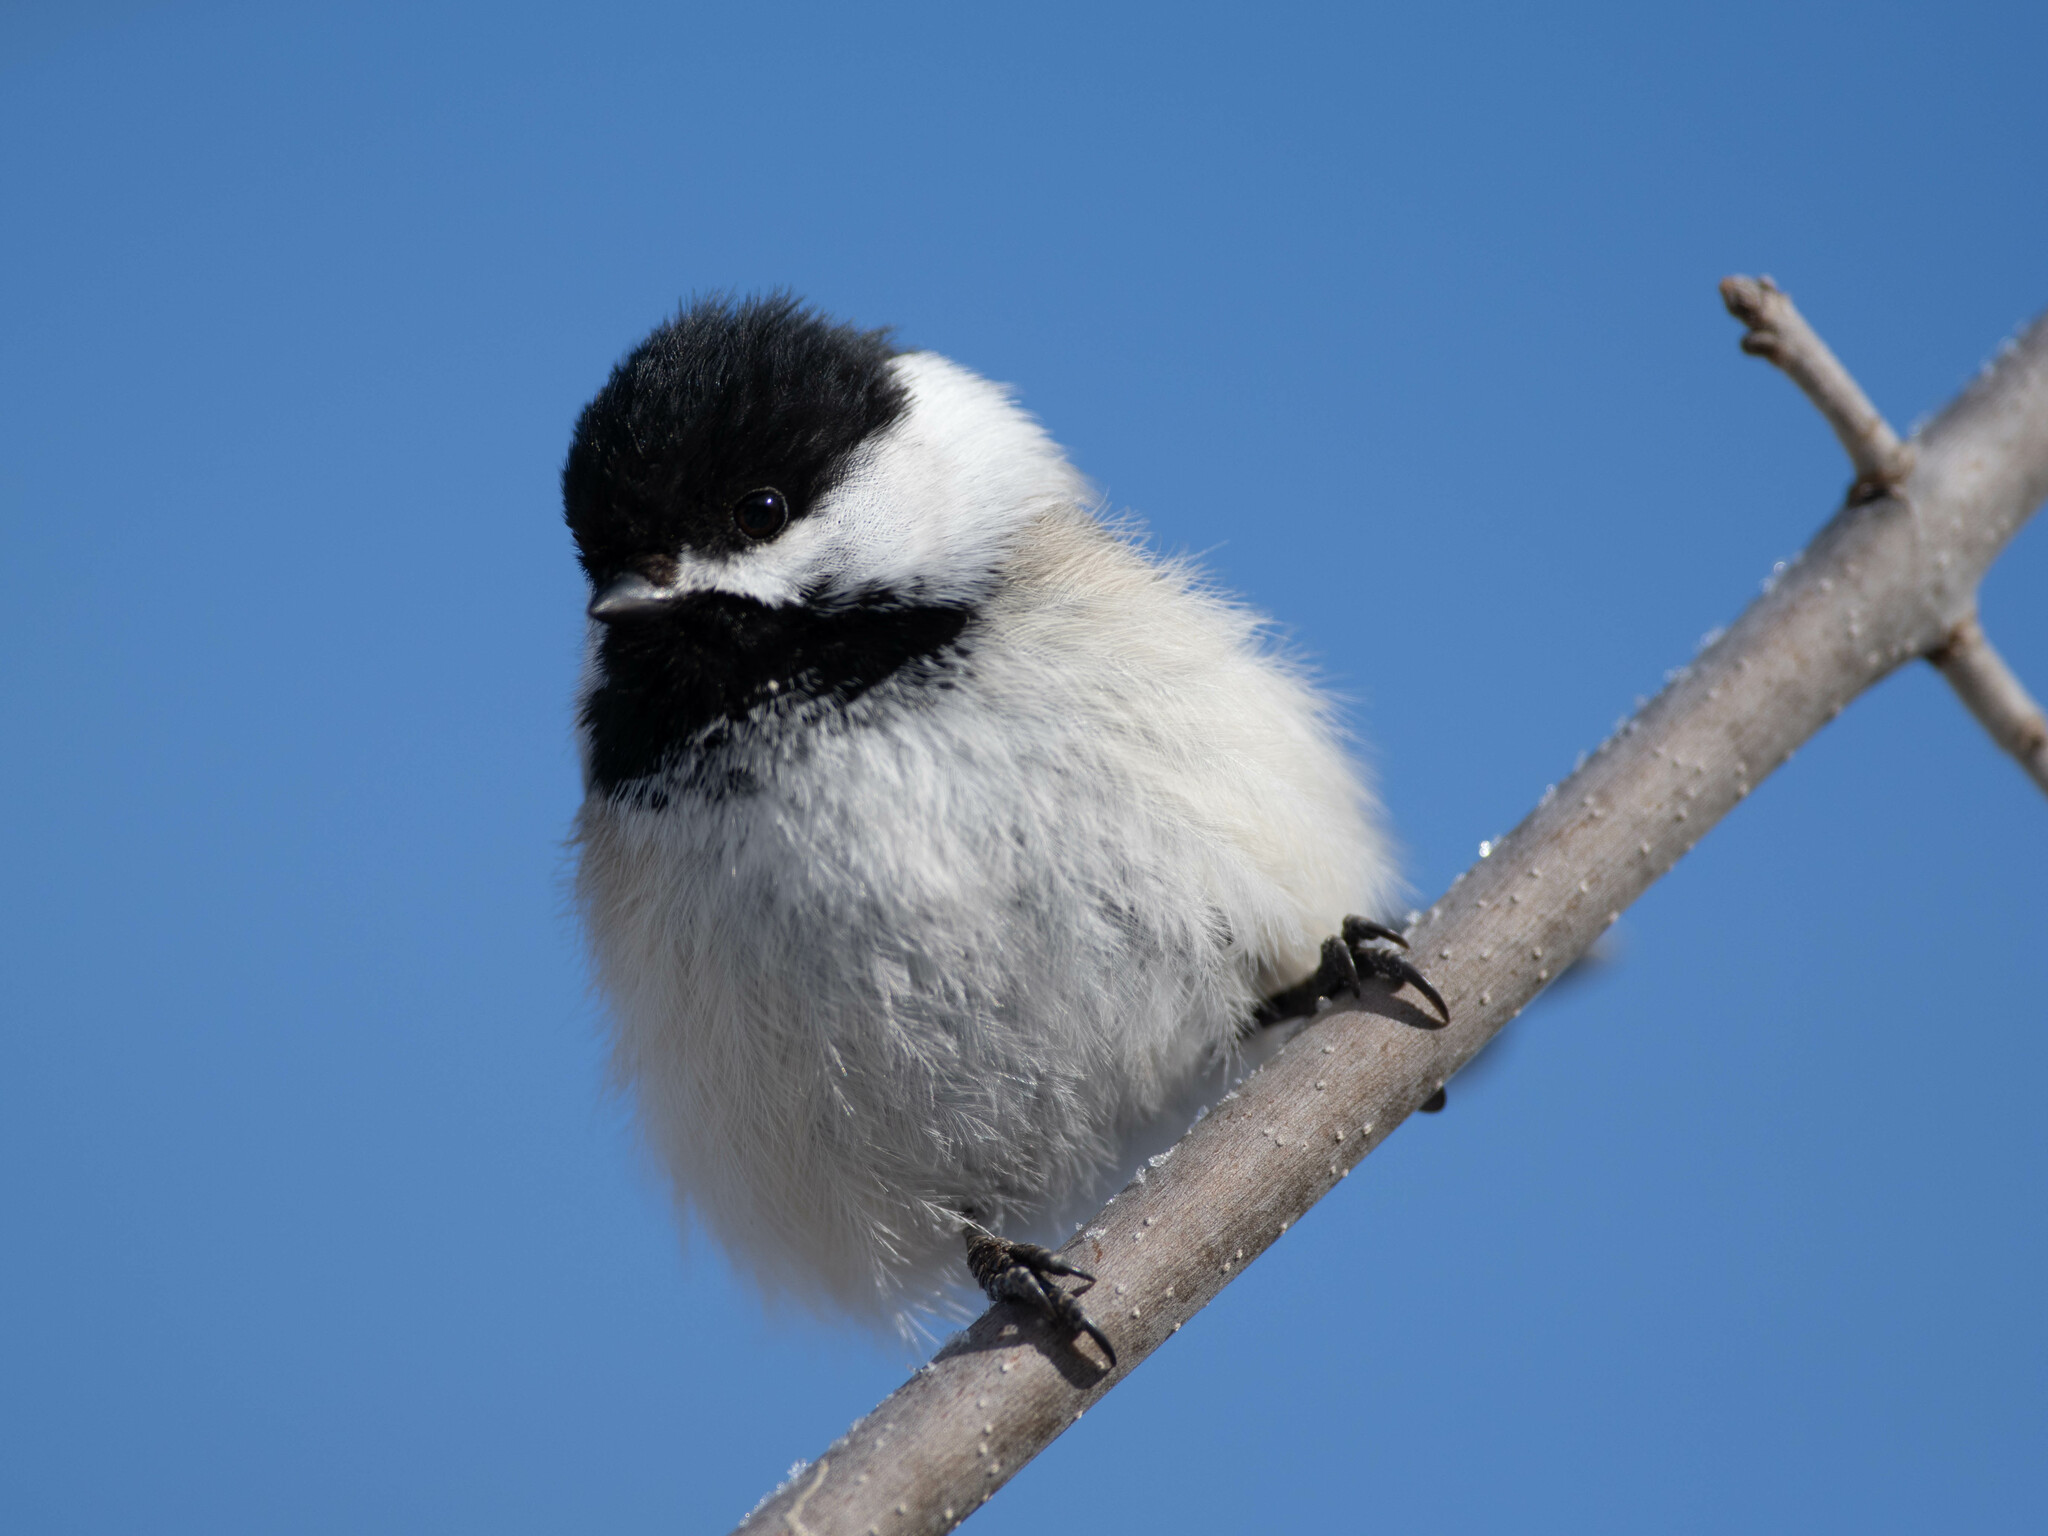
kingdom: Animalia
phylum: Chordata
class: Aves
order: Passeriformes
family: Paridae
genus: Poecile
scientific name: Poecile atricapillus
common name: Black-capped chickadee
